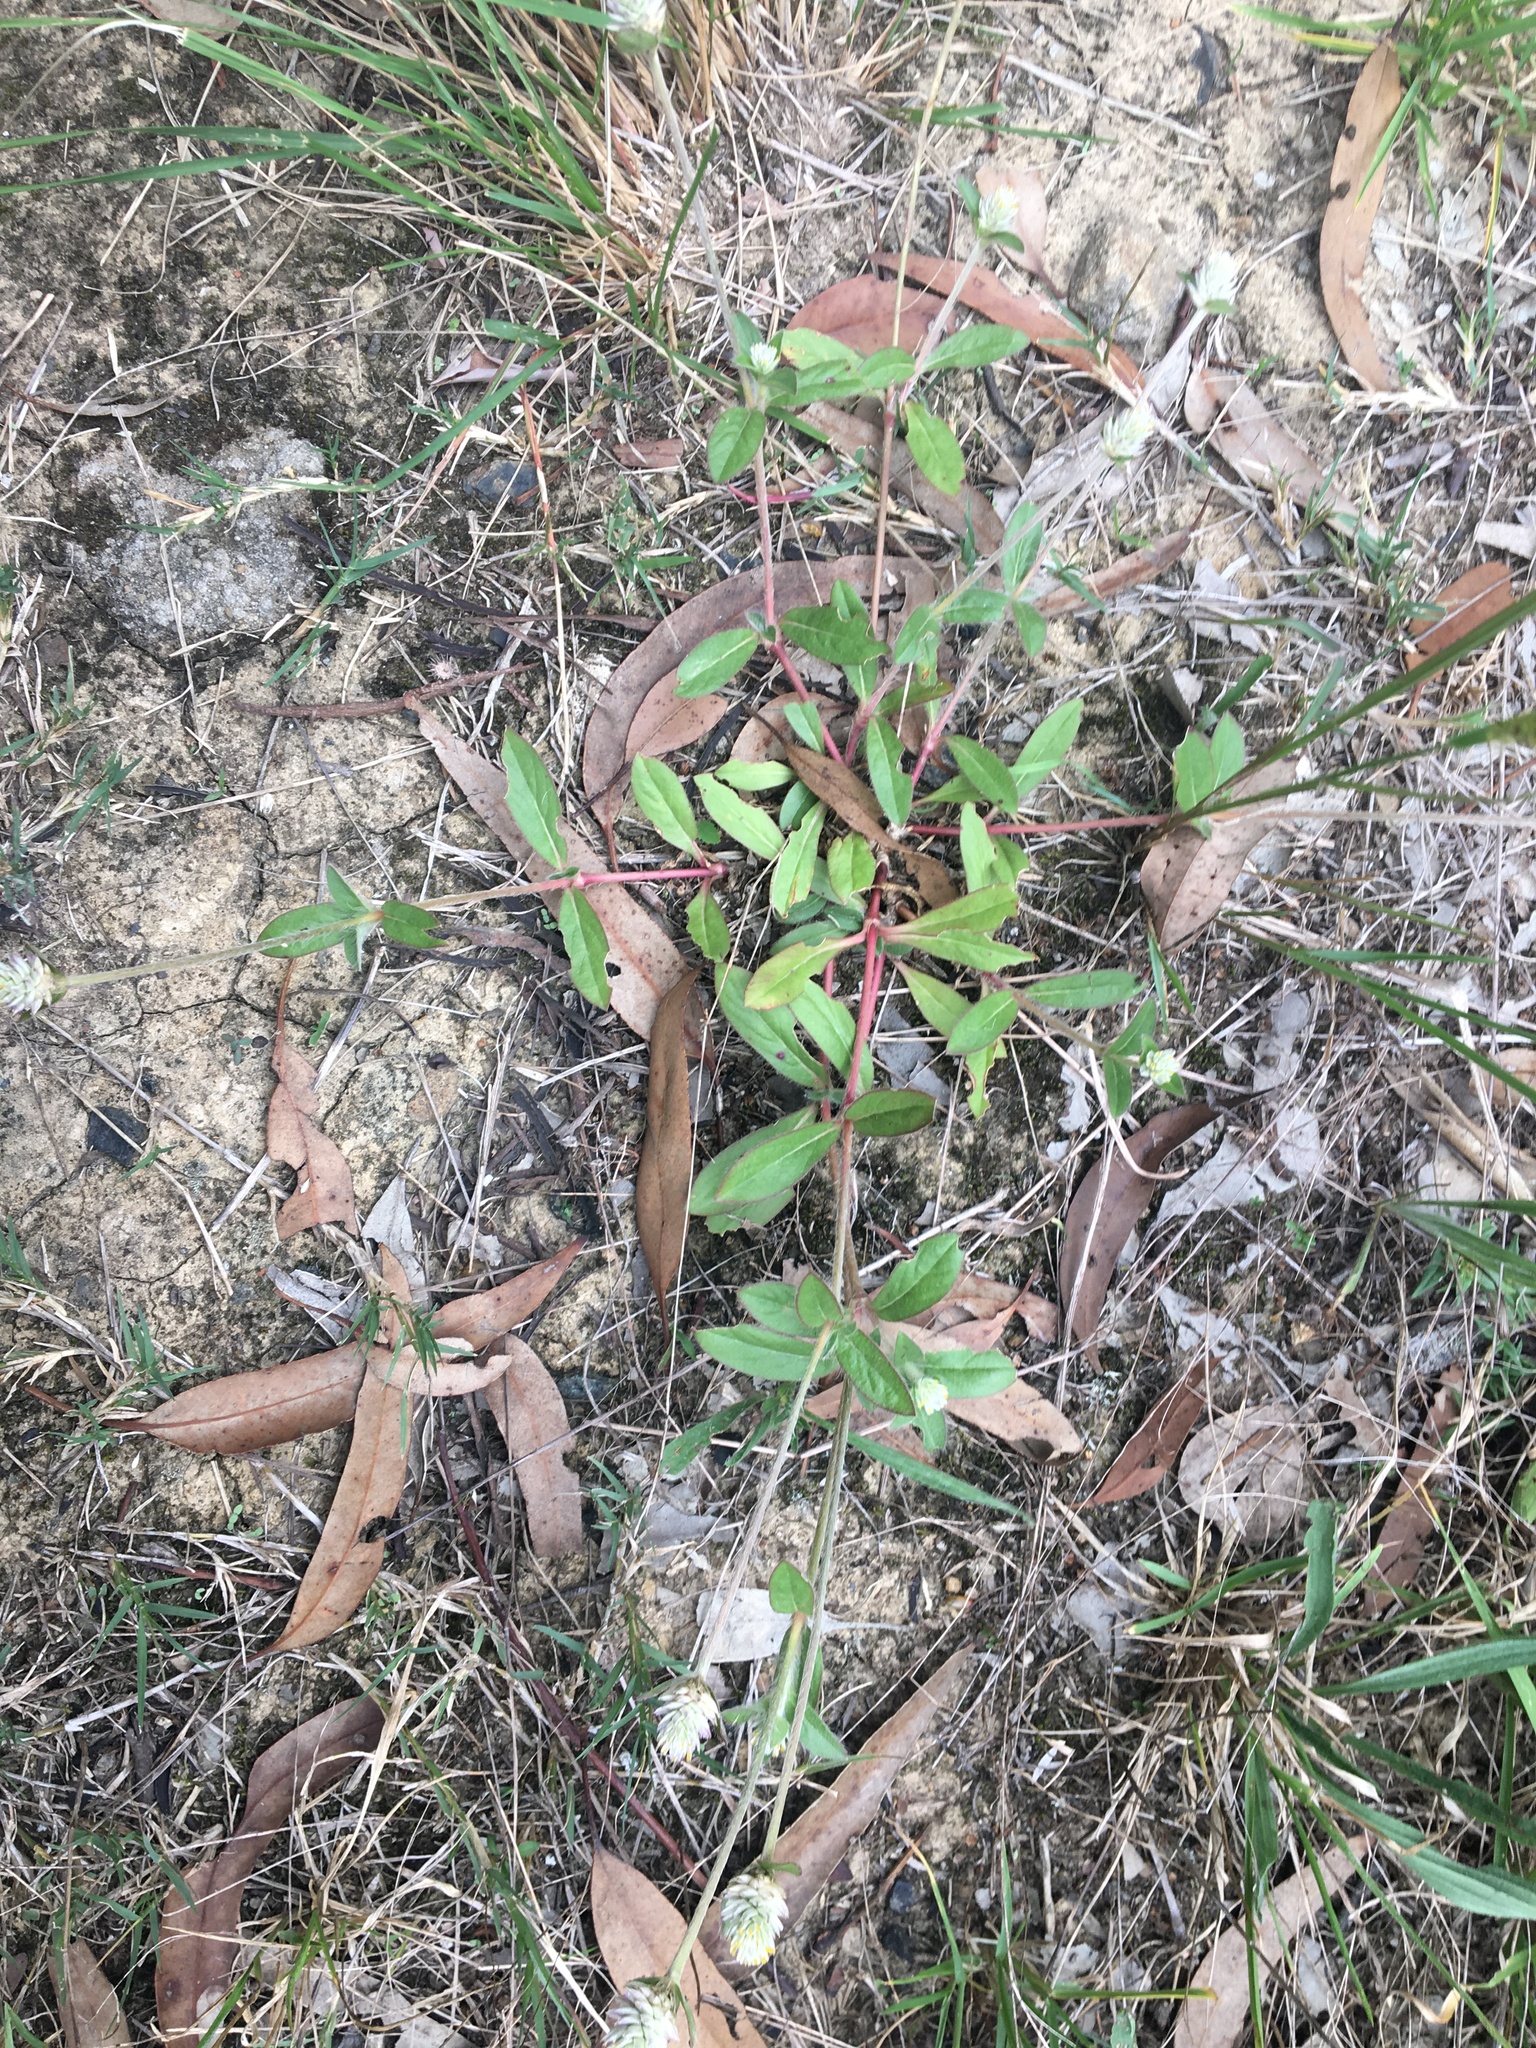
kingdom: Plantae
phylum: Tracheophyta
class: Magnoliopsida
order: Caryophyllales
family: Amaranthaceae
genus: Gomphrena
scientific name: Gomphrena celosioides
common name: Gomphrena-weed
